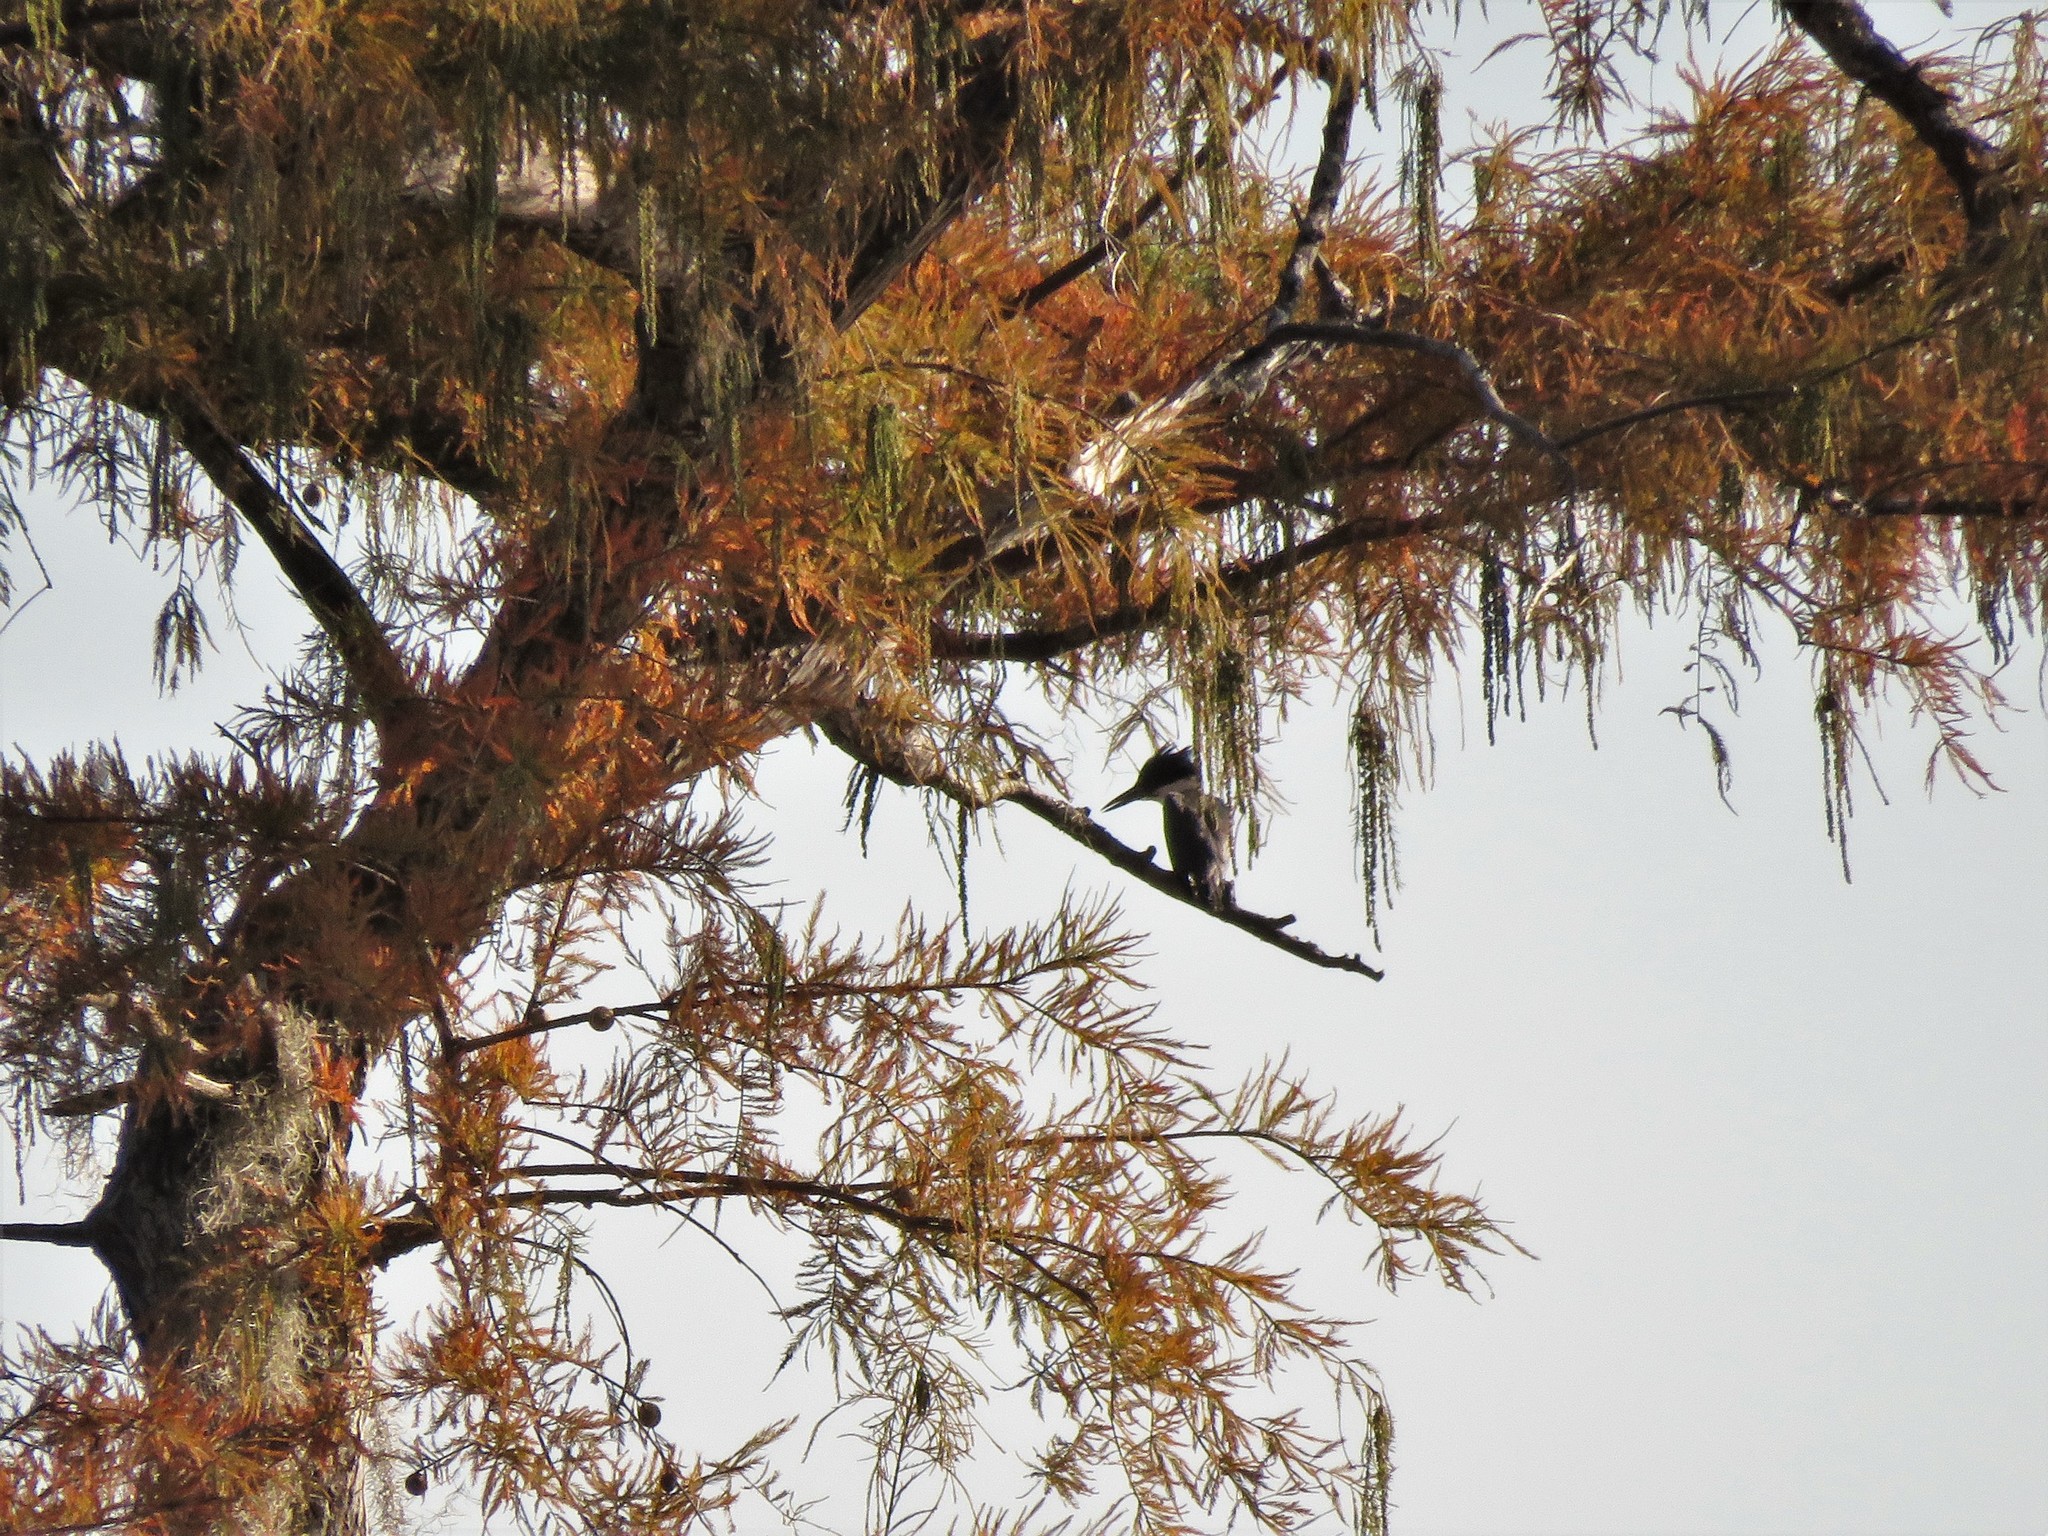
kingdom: Animalia
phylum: Chordata
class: Aves
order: Coraciiformes
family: Alcedinidae
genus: Megaceryle
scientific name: Megaceryle alcyon
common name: Belted kingfisher
